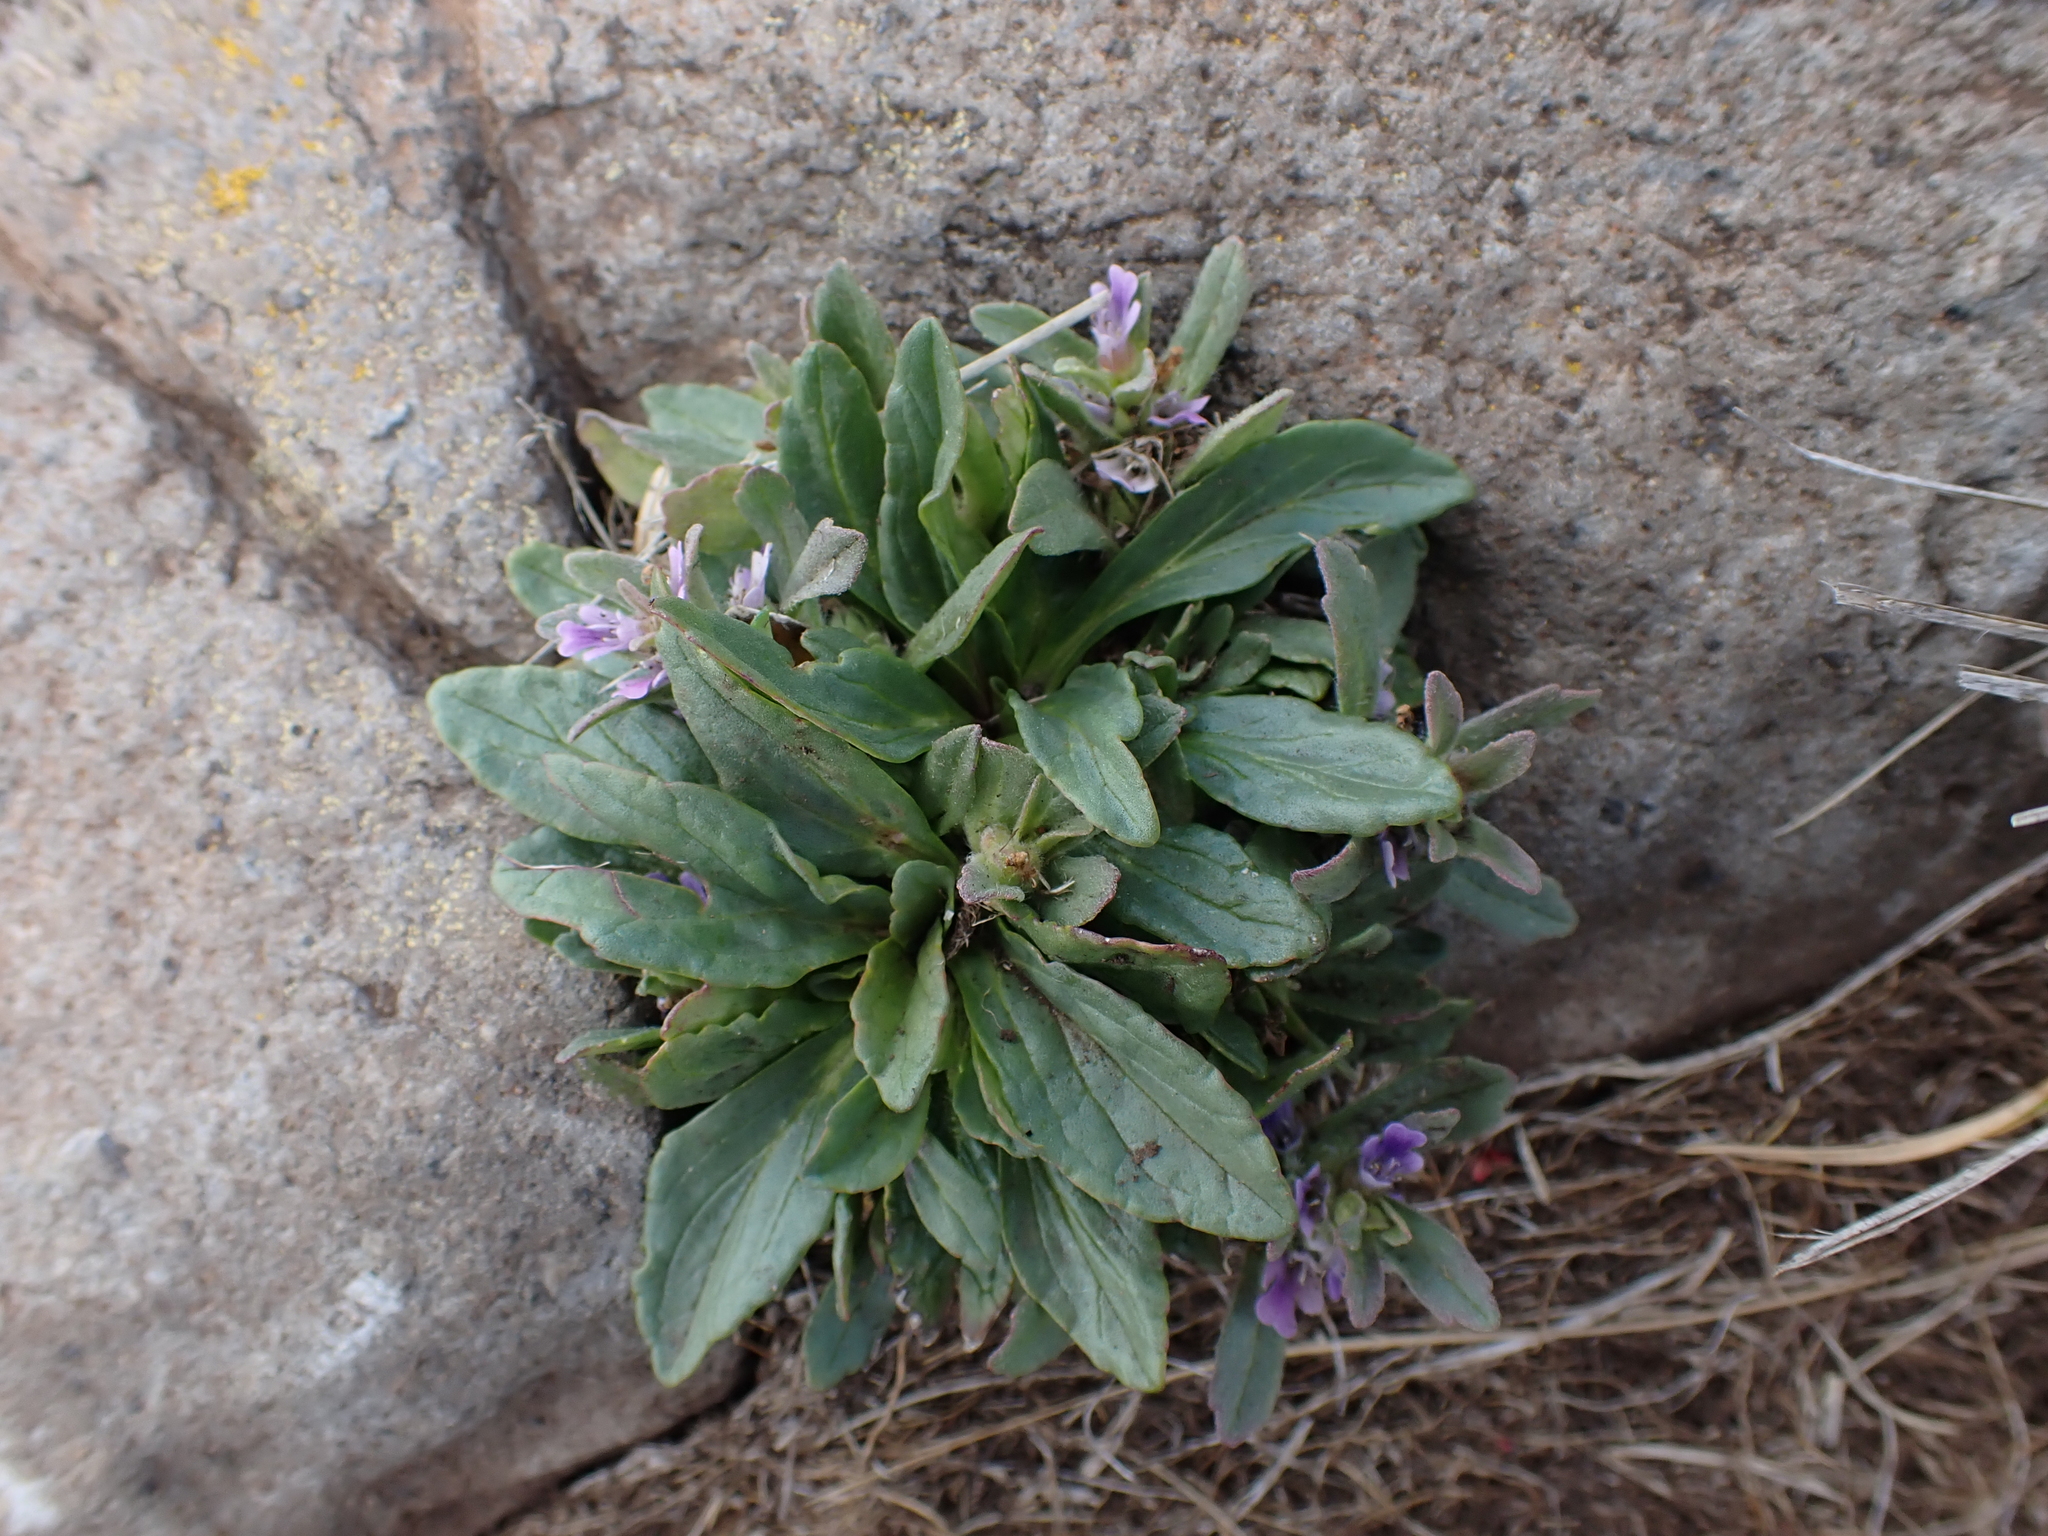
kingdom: Plantae
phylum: Tracheophyta
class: Magnoliopsida
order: Lamiales
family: Lamiaceae
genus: Ajuga
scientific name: Ajuga australis
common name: Australian bugle
